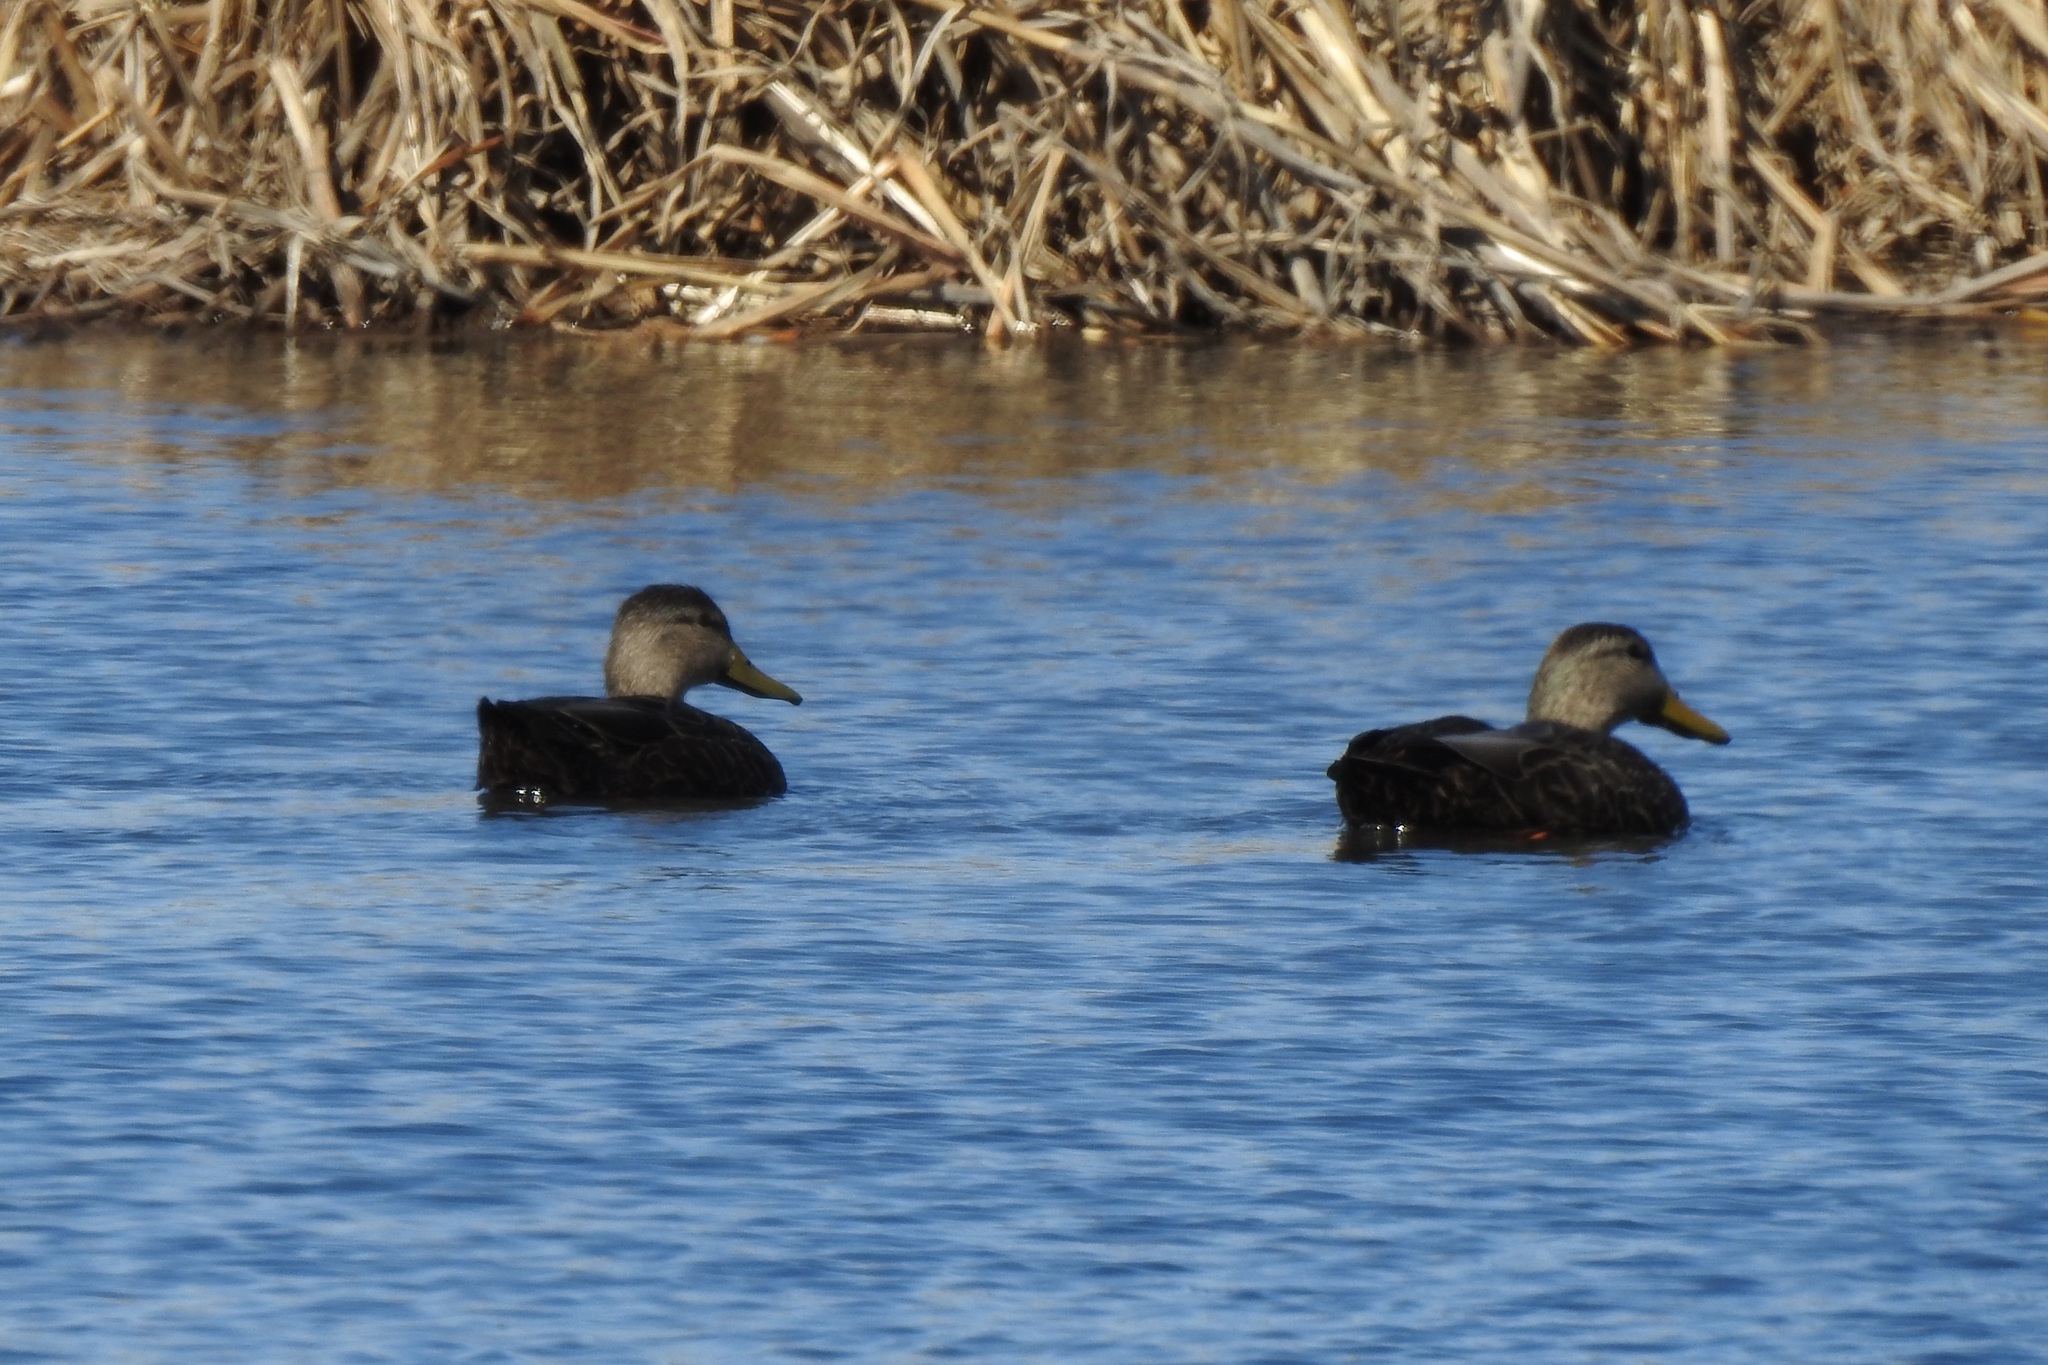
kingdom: Animalia
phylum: Chordata
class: Aves
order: Anseriformes
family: Anatidae
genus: Anas
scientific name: Anas rubripes
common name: American black duck
